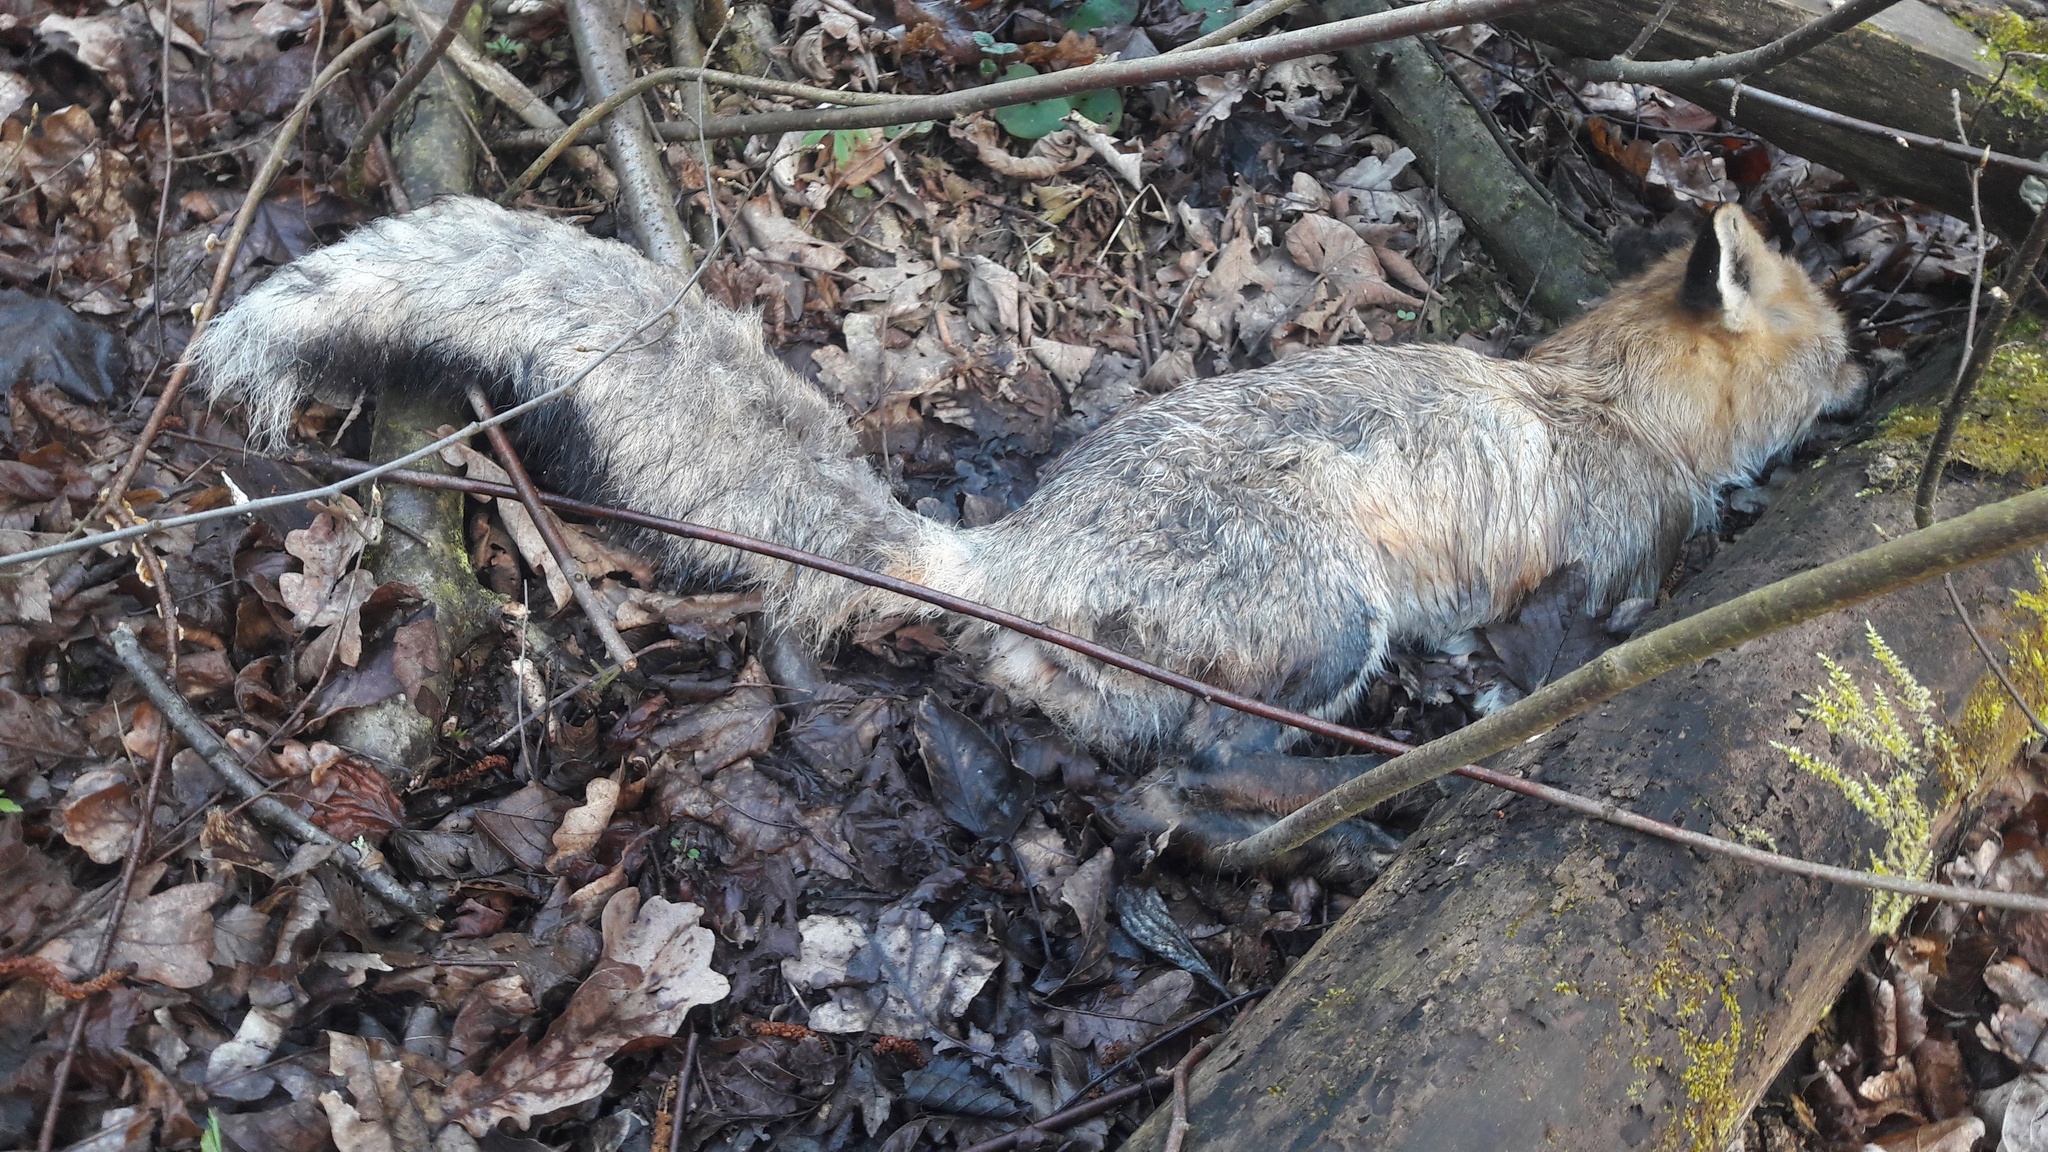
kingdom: Animalia
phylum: Chordata
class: Mammalia
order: Carnivora
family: Canidae
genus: Vulpes
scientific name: Vulpes vulpes
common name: Red fox
